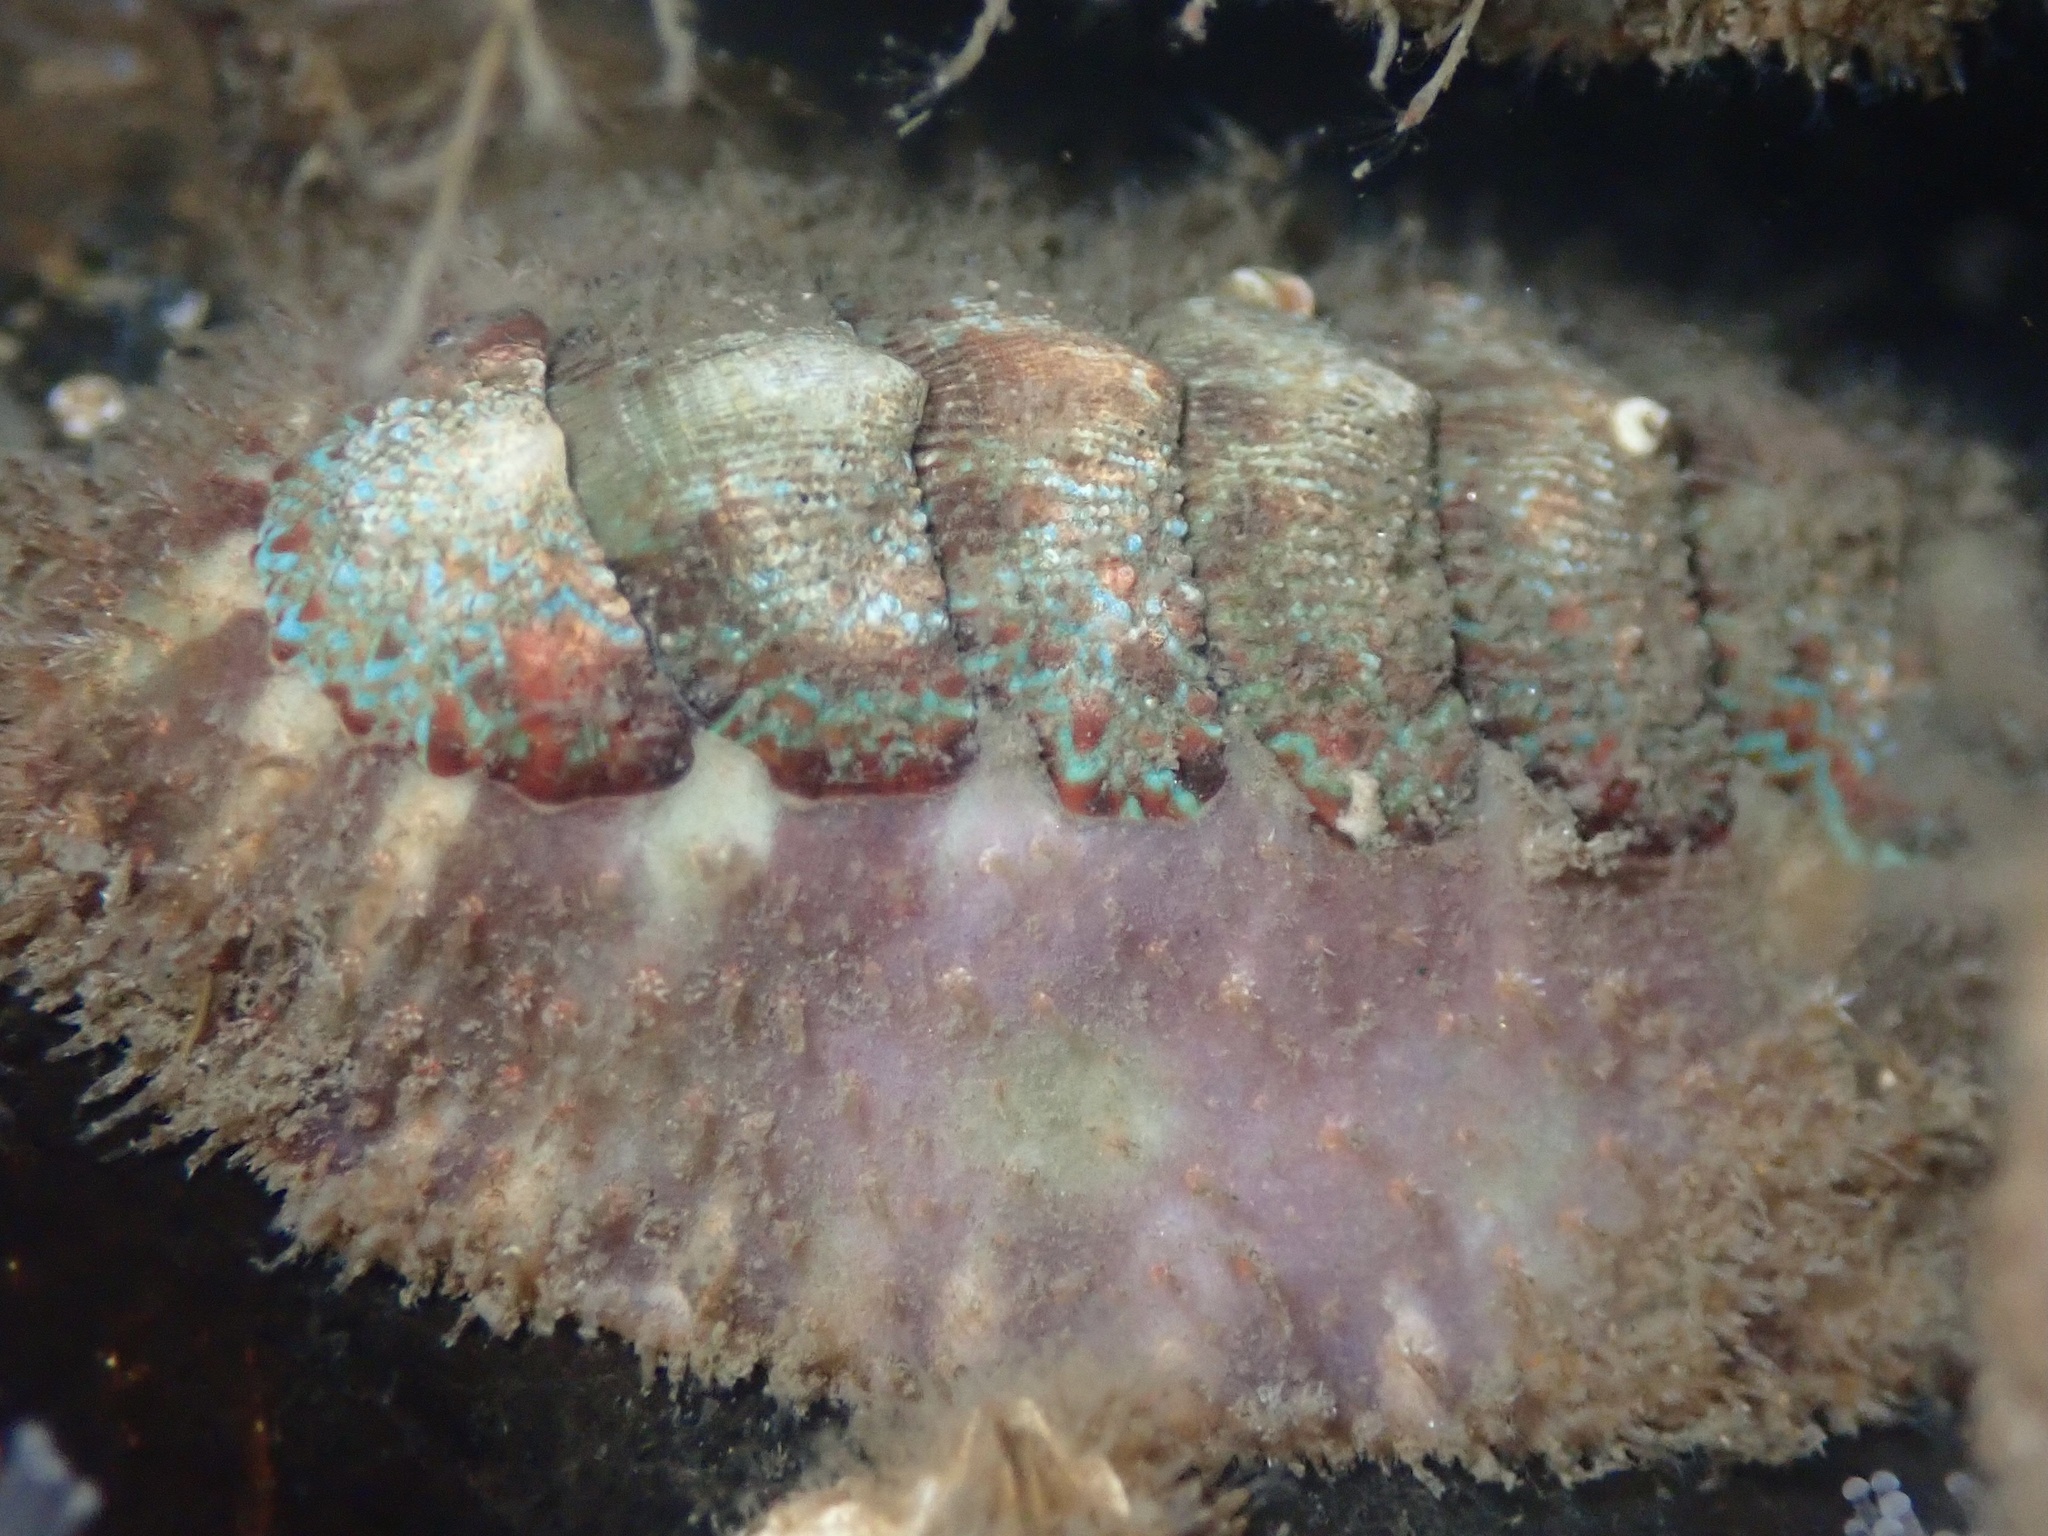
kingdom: Animalia
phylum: Mollusca
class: Polyplacophora
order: Chitonida
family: Mopaliidae
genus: Mopalia
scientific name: Mopalia spectabilis
